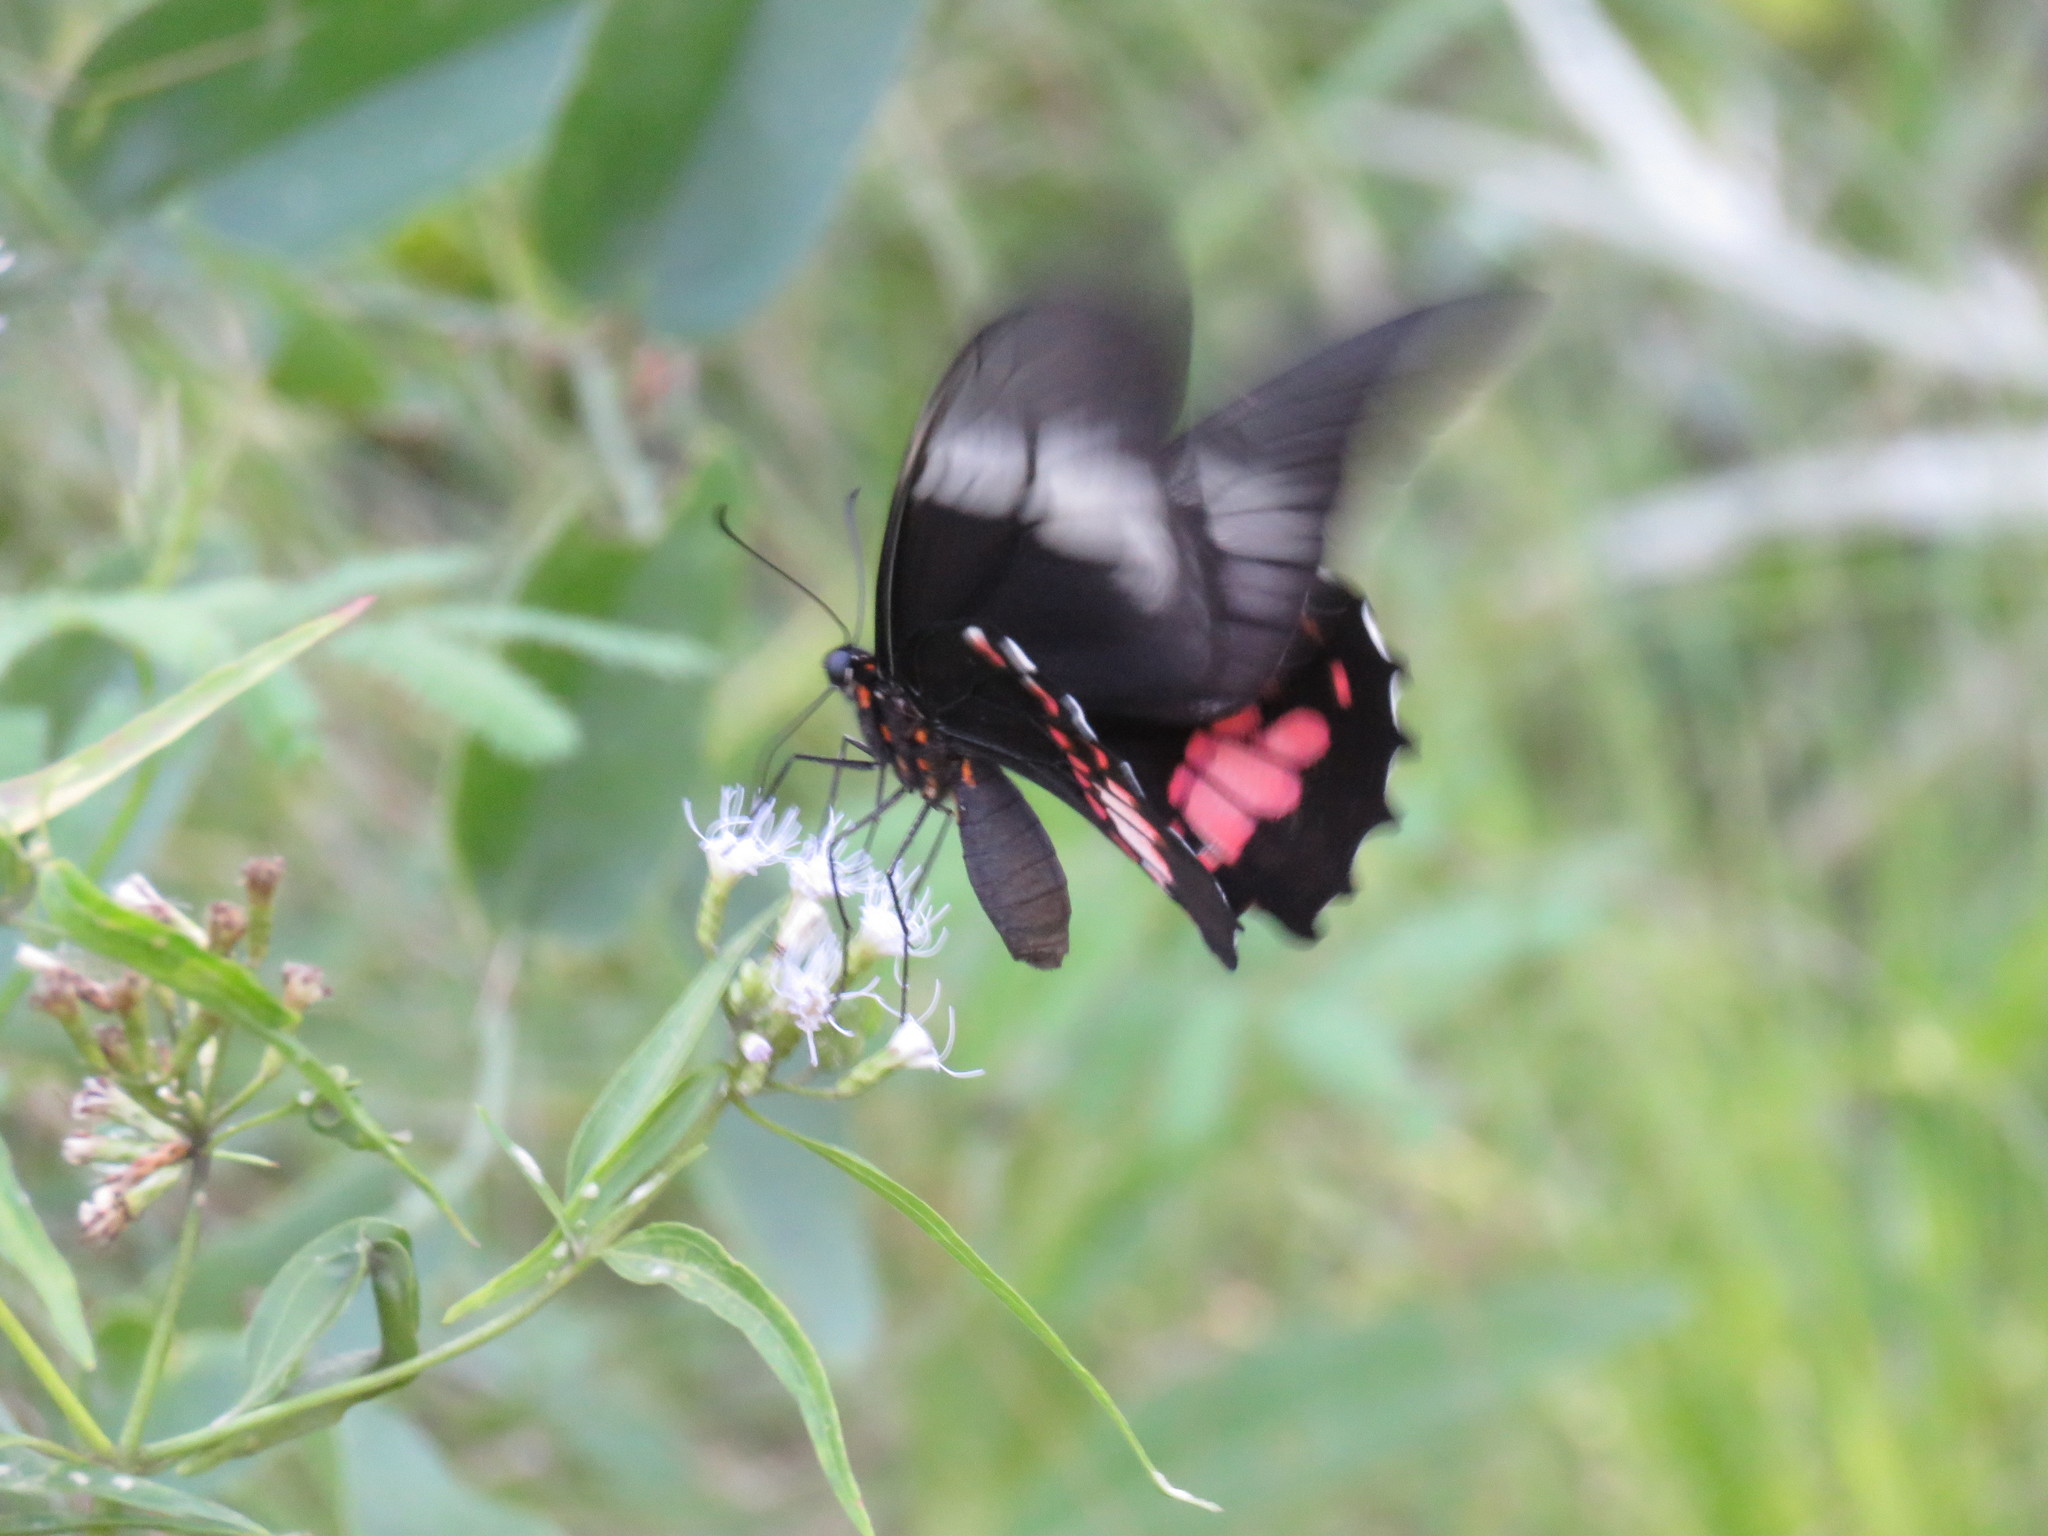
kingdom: Animalia
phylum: Arthropoda
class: Insecta
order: Lepidoptera
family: Papilionidae
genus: Papilio
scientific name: Papilio anchisiades
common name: Idaes swallowtail
